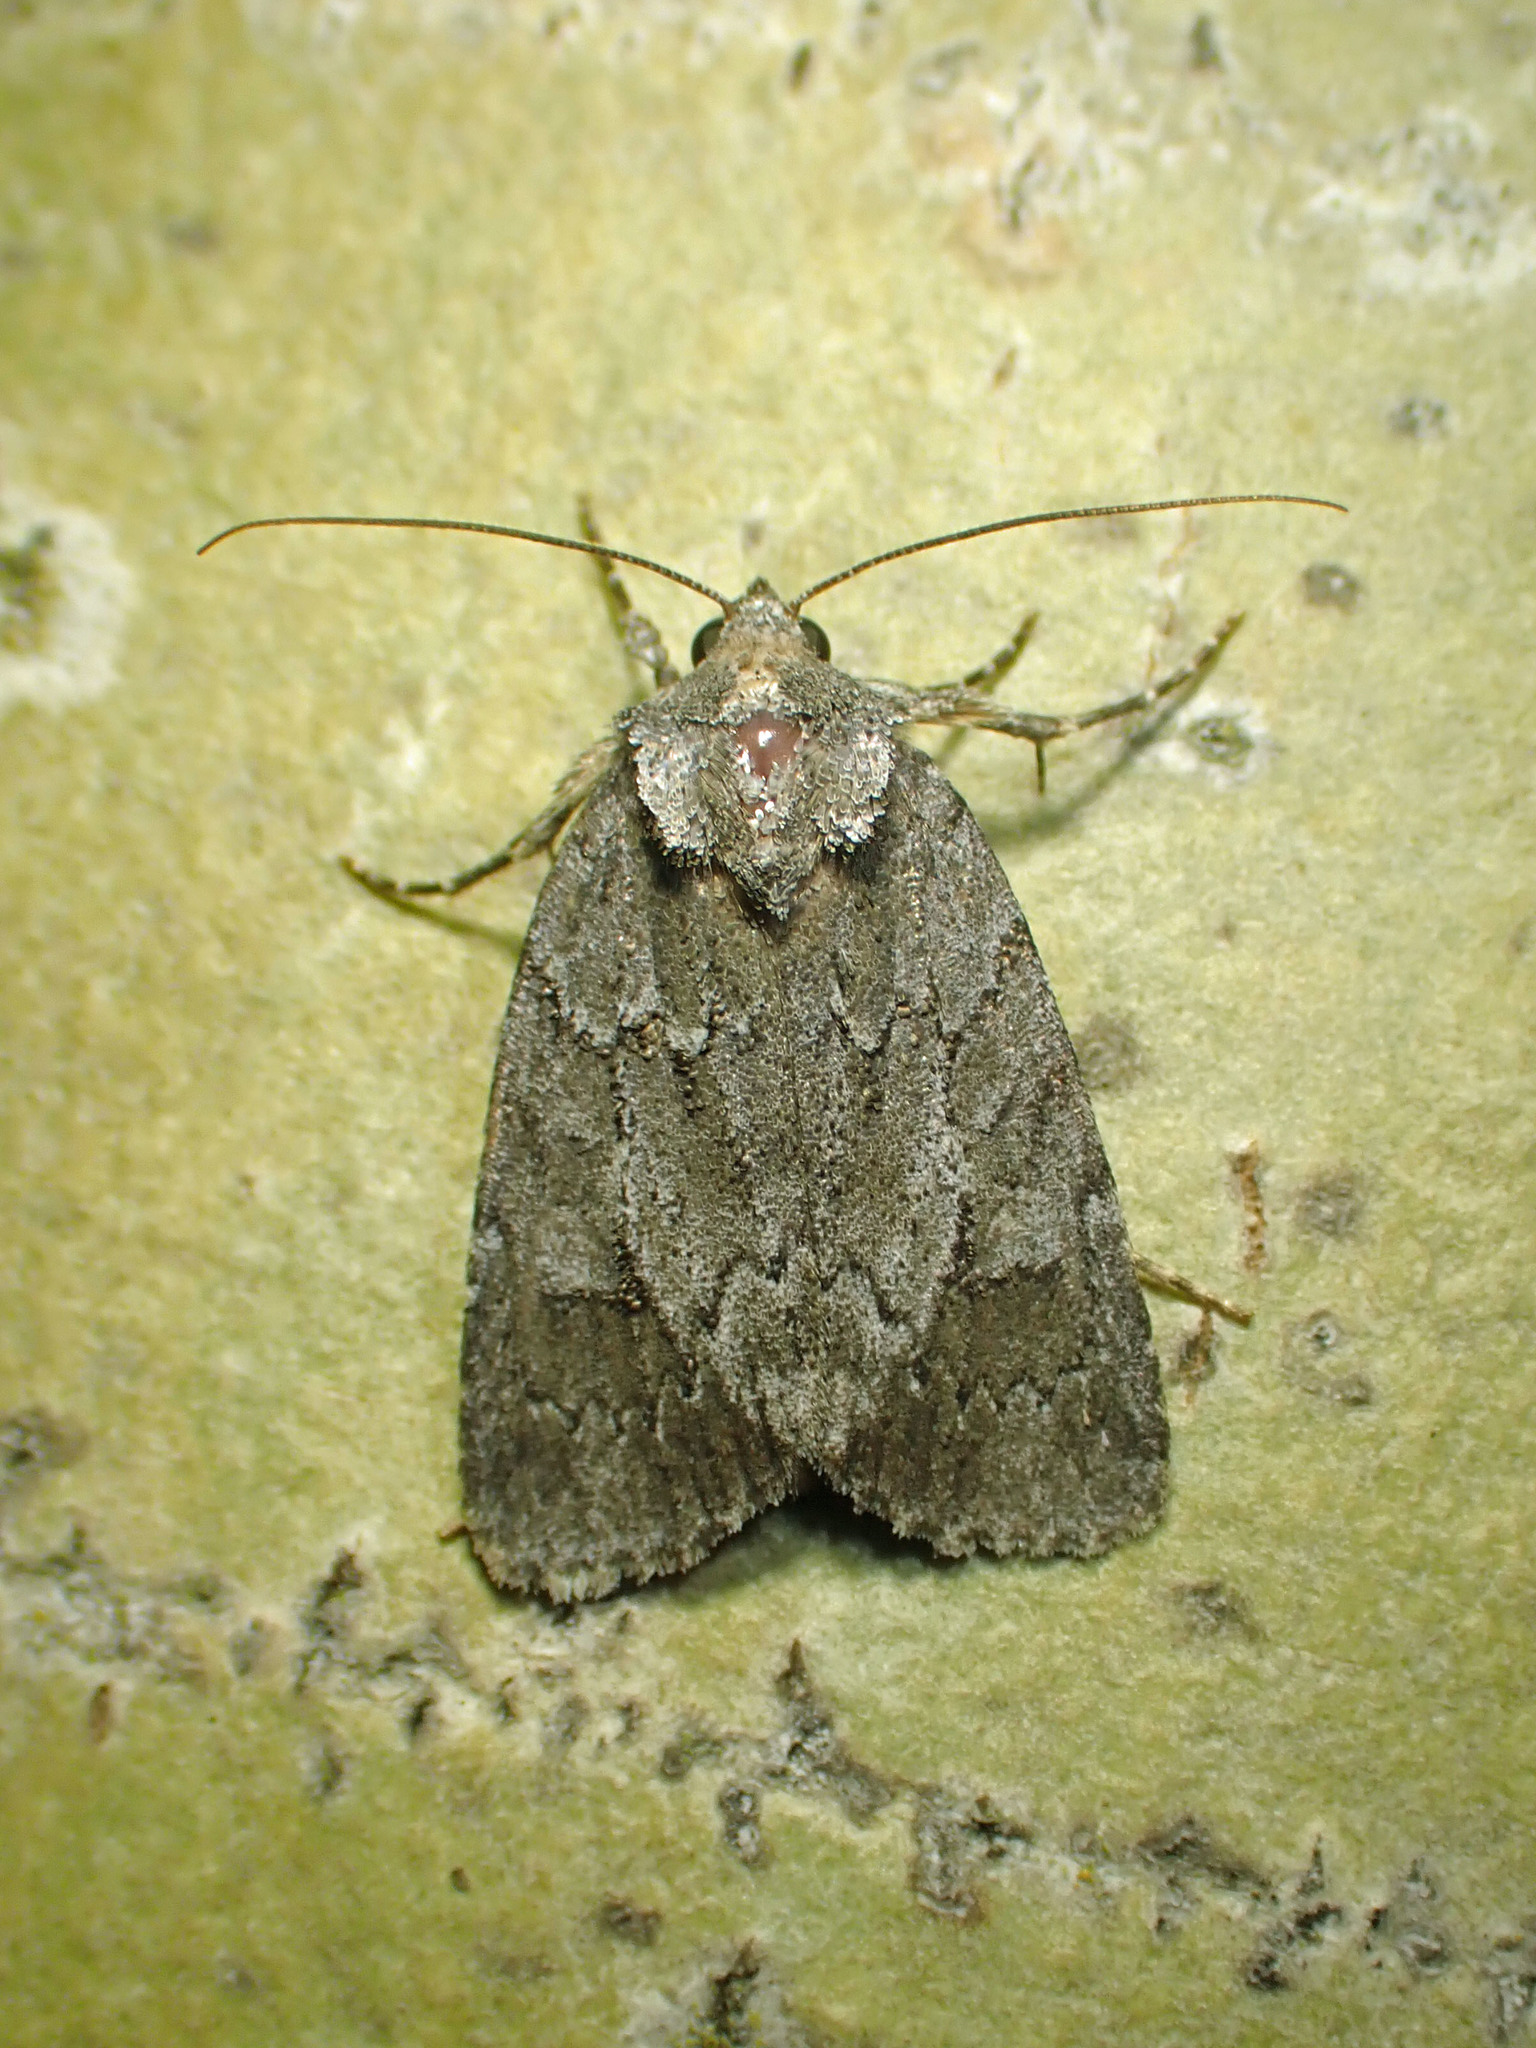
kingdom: Animalia
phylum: Arthropoda
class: Insecta
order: Lepidoptera
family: Noctuidae
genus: Sympistis
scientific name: Sympistis dentata
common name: Blueberry sallow
